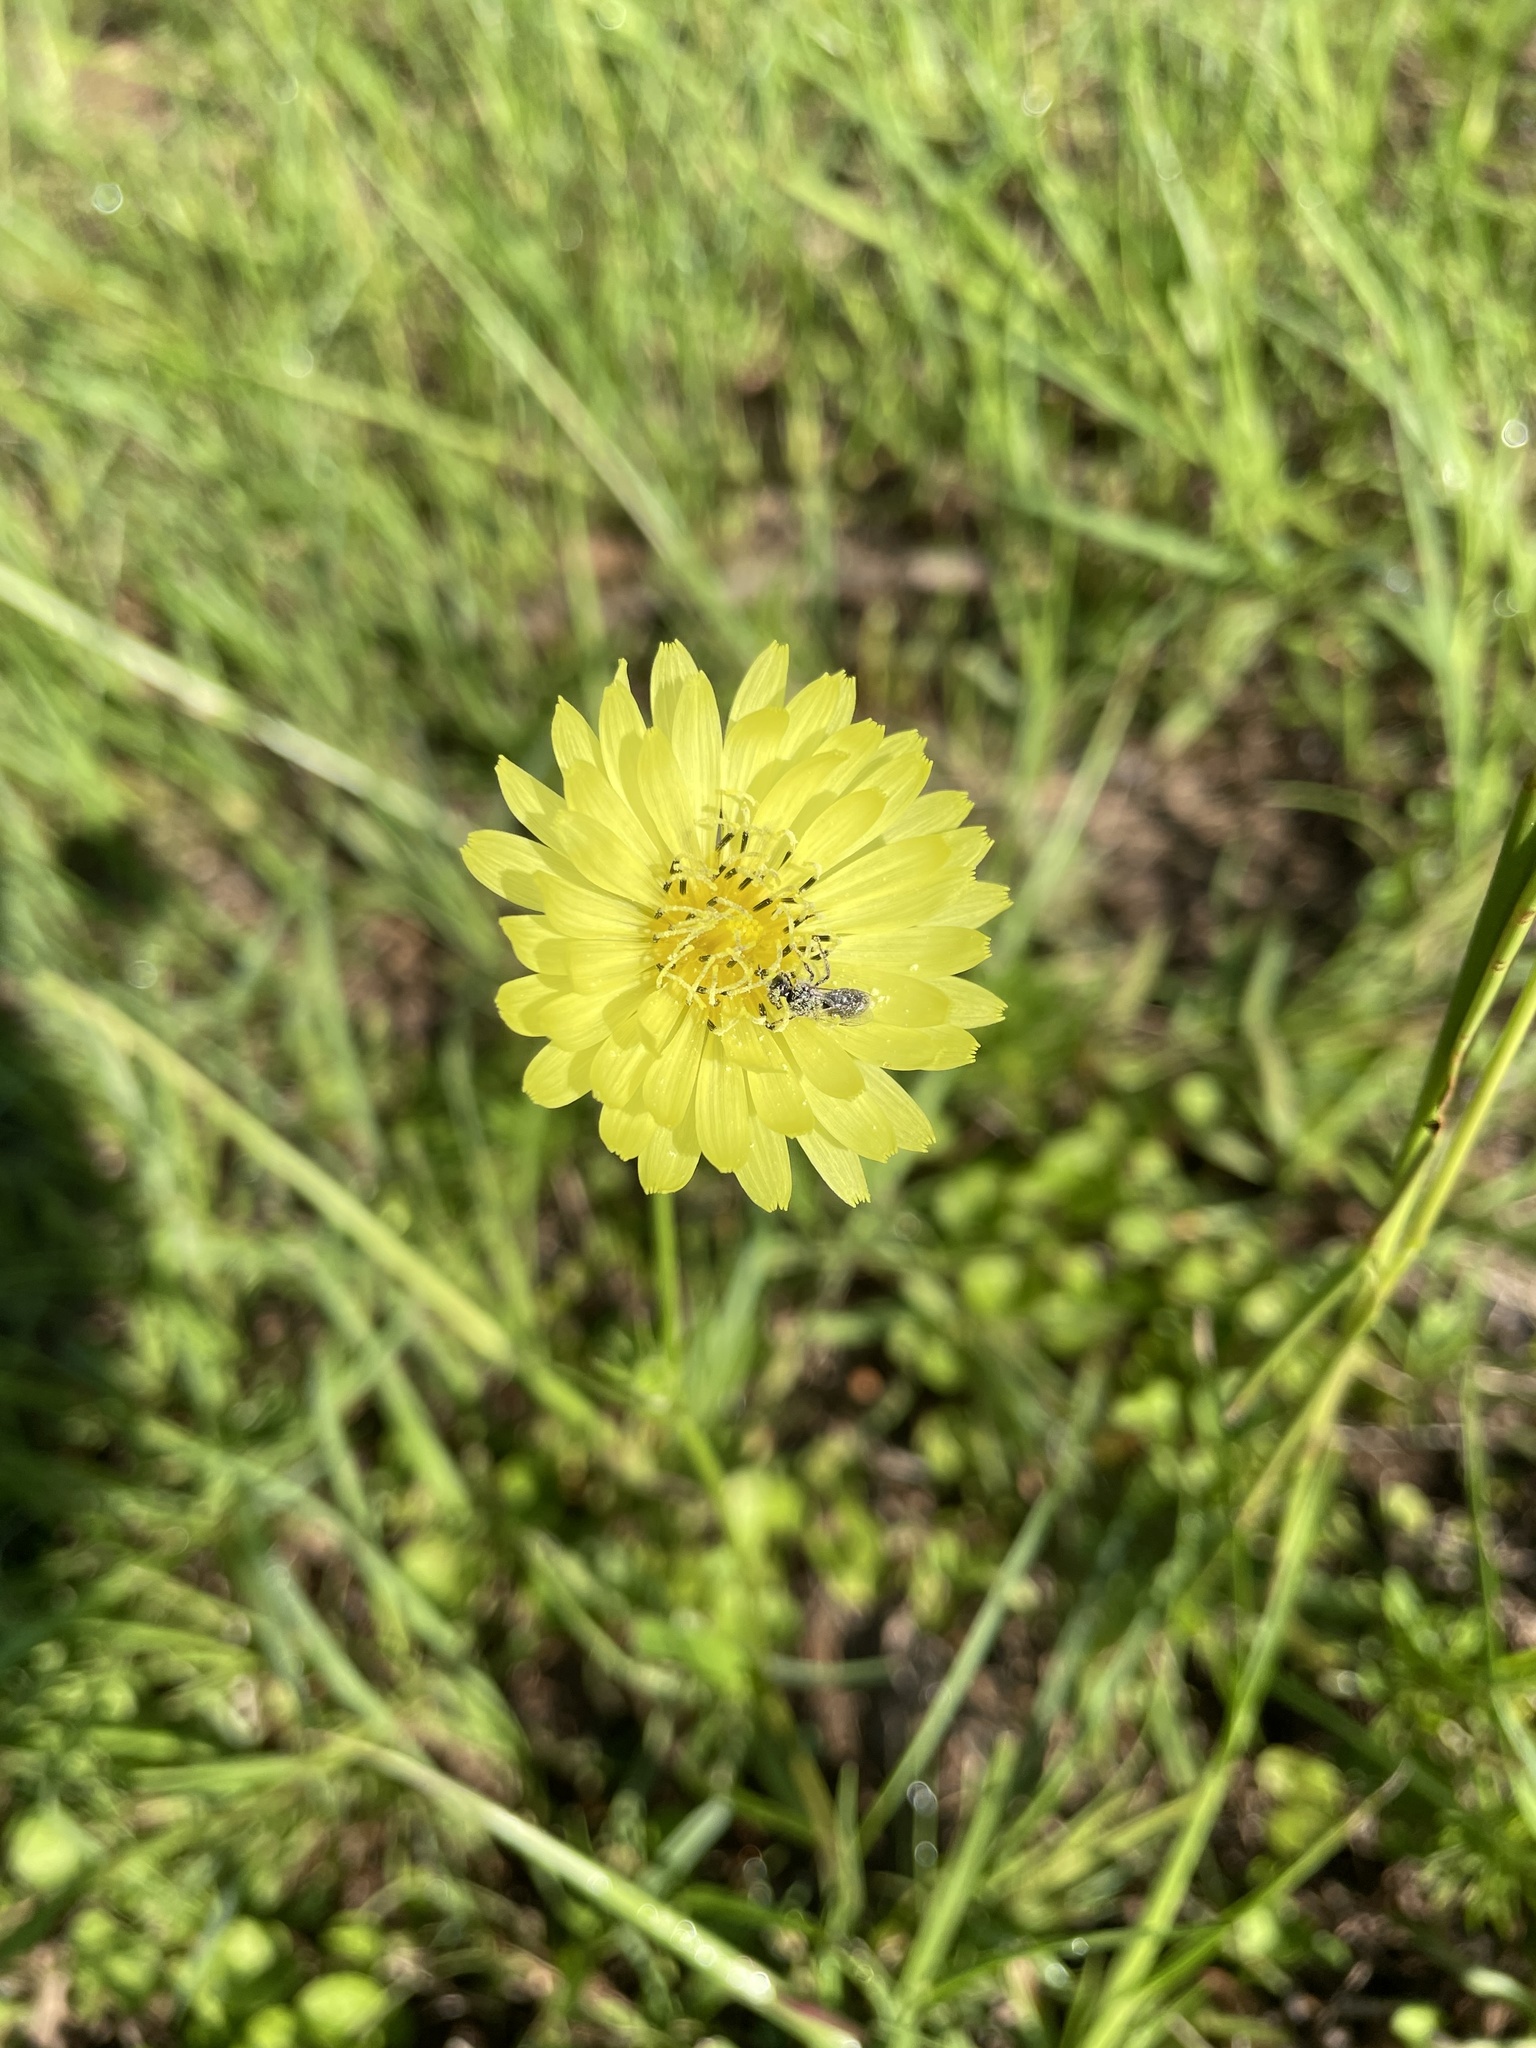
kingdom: Plantae
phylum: Tracheophyta
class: Magnoliopsida
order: Asterales
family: Asteraceae
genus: Pyrrhopappus
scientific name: Pyrrhopappus pauciflorus
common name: Texas false dandelion
